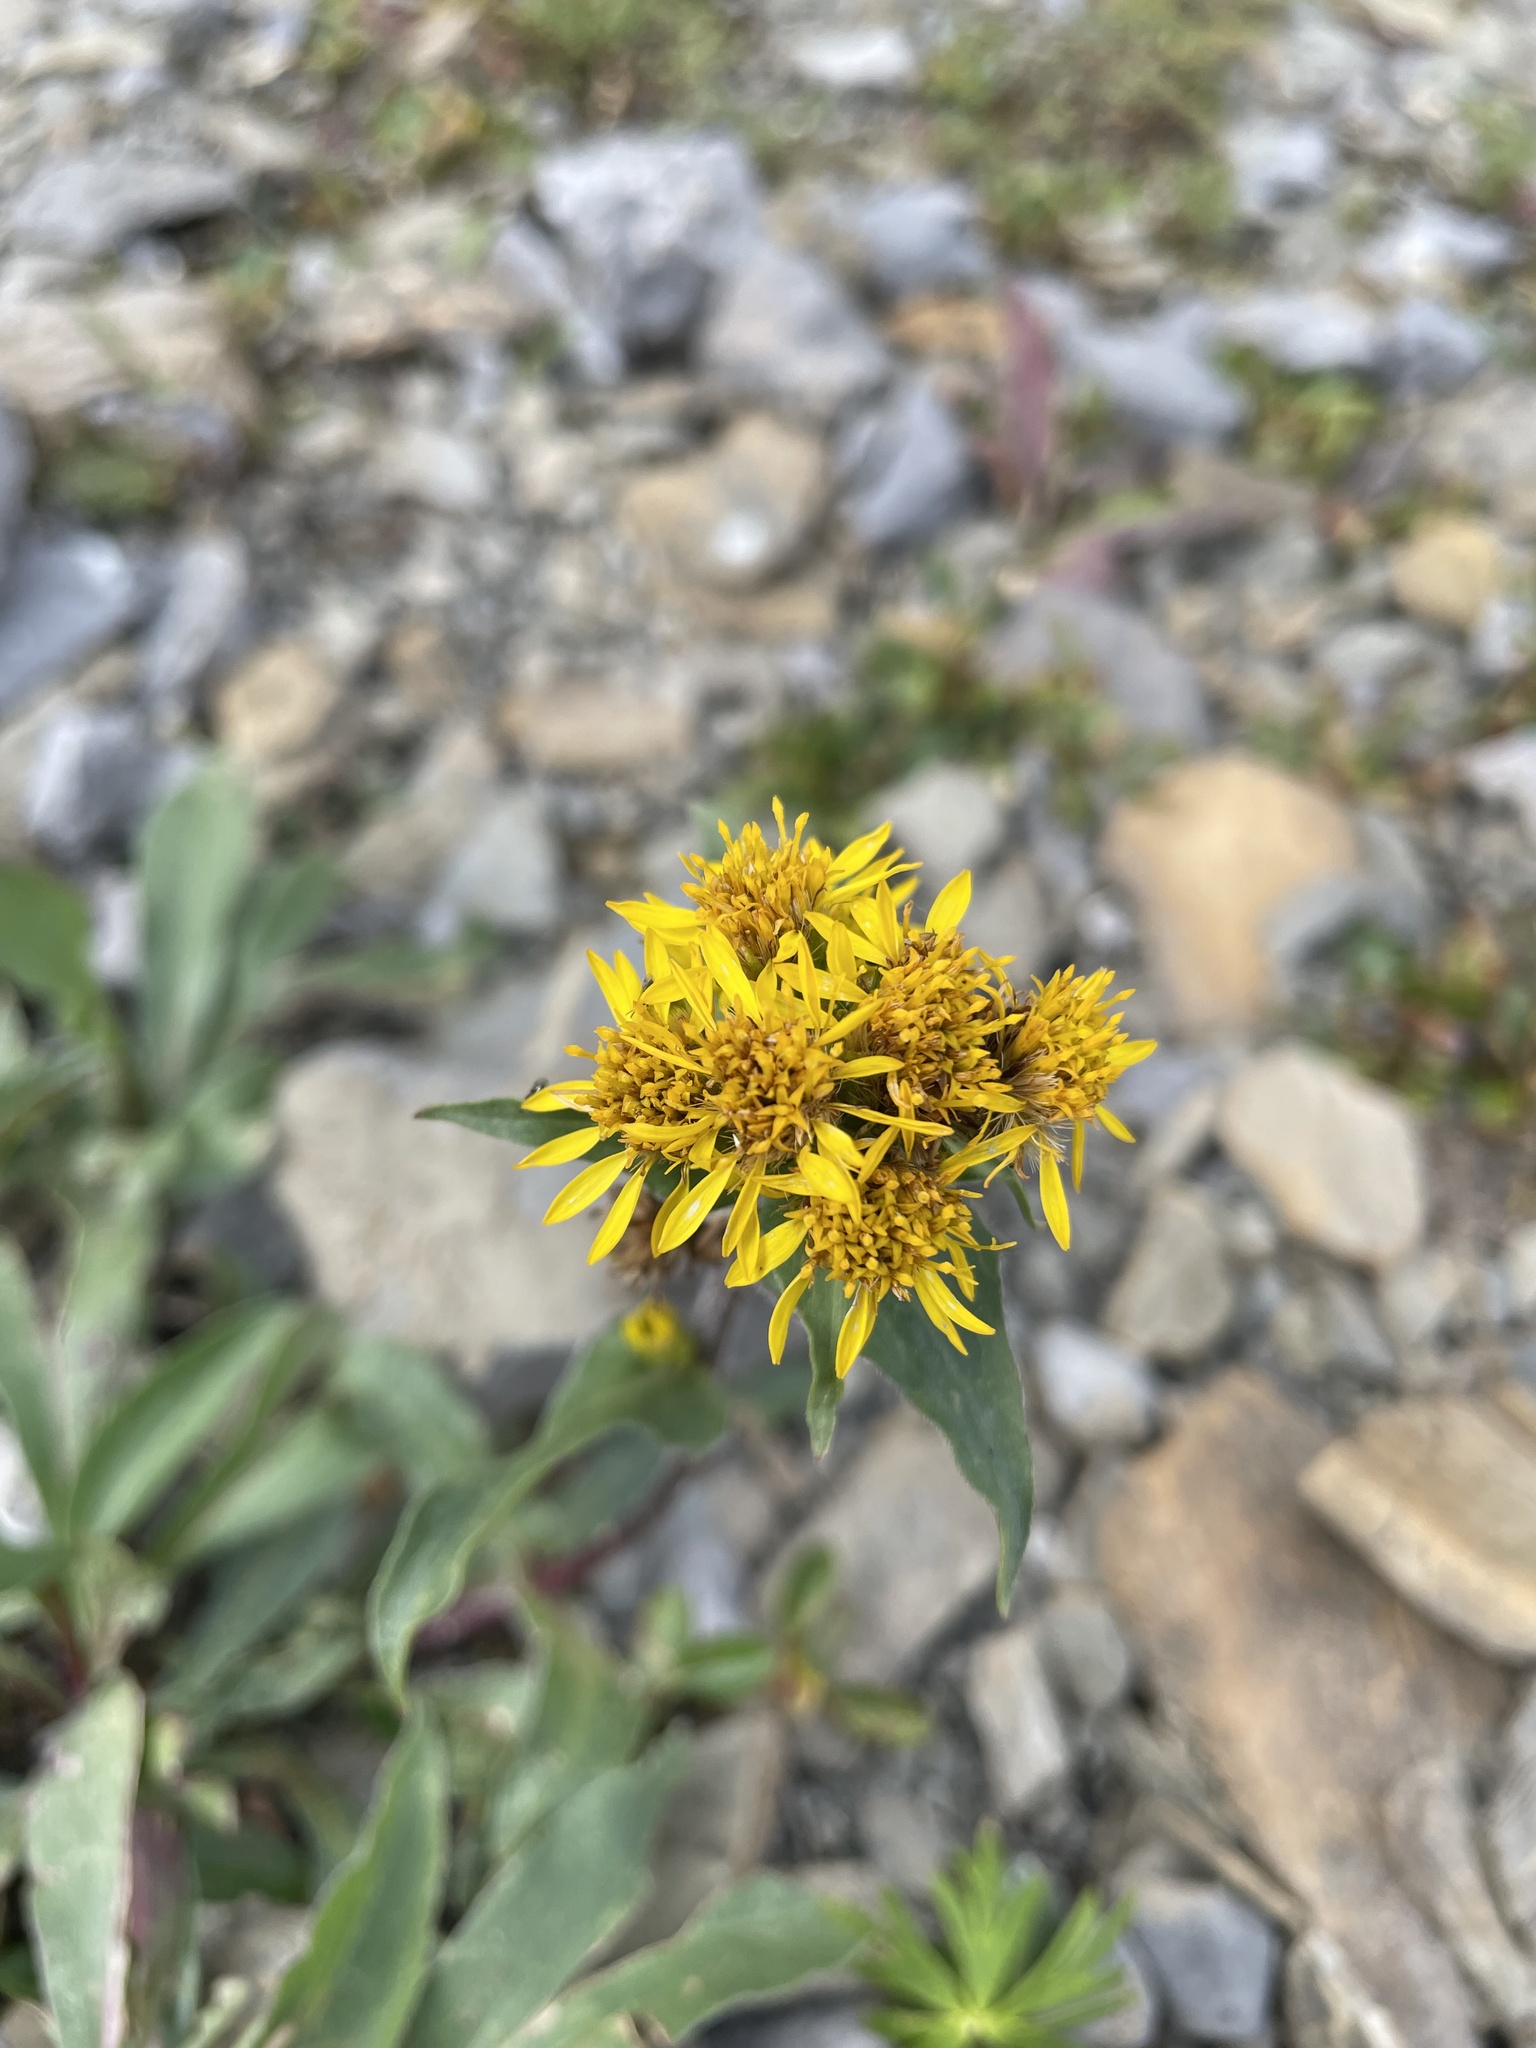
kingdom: Plantae
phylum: Tracheophyta
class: Magnoliopsida
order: Asterales
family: Asteraceae
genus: Solidago
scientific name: Solidago multiradiata
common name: Northern goldenrod
